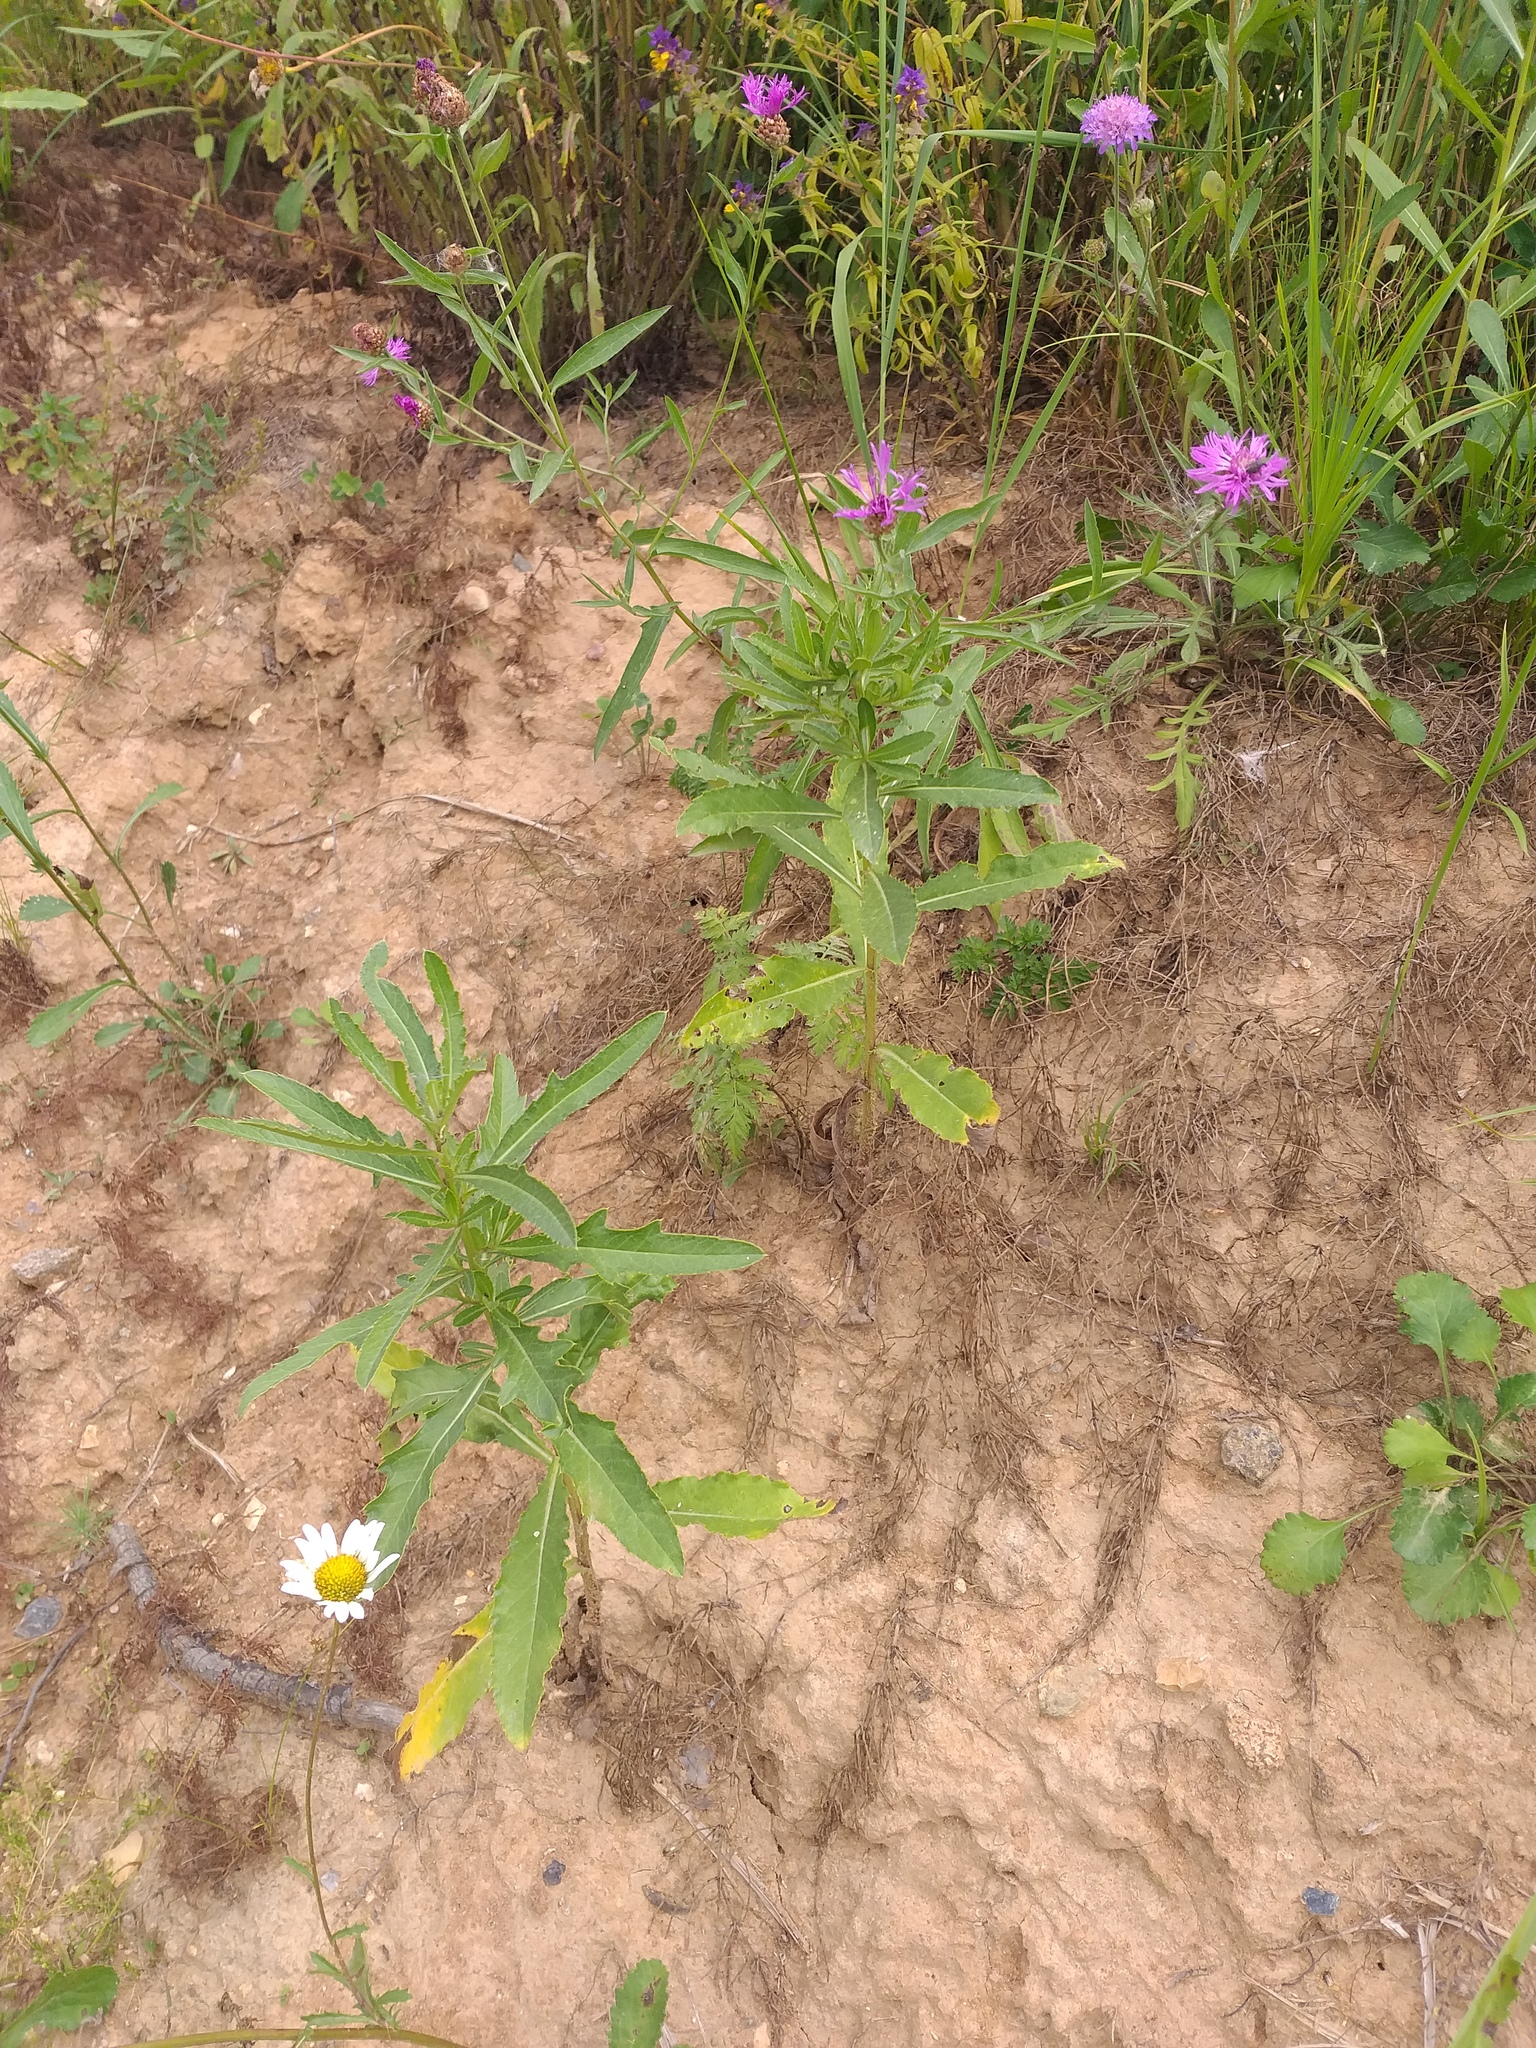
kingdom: Plantae
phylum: Tracheophyta
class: Magnoliopsida
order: Asterales
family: Asteraceae
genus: Cirsium
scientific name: Cirsium arvense
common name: Creeping thistle
